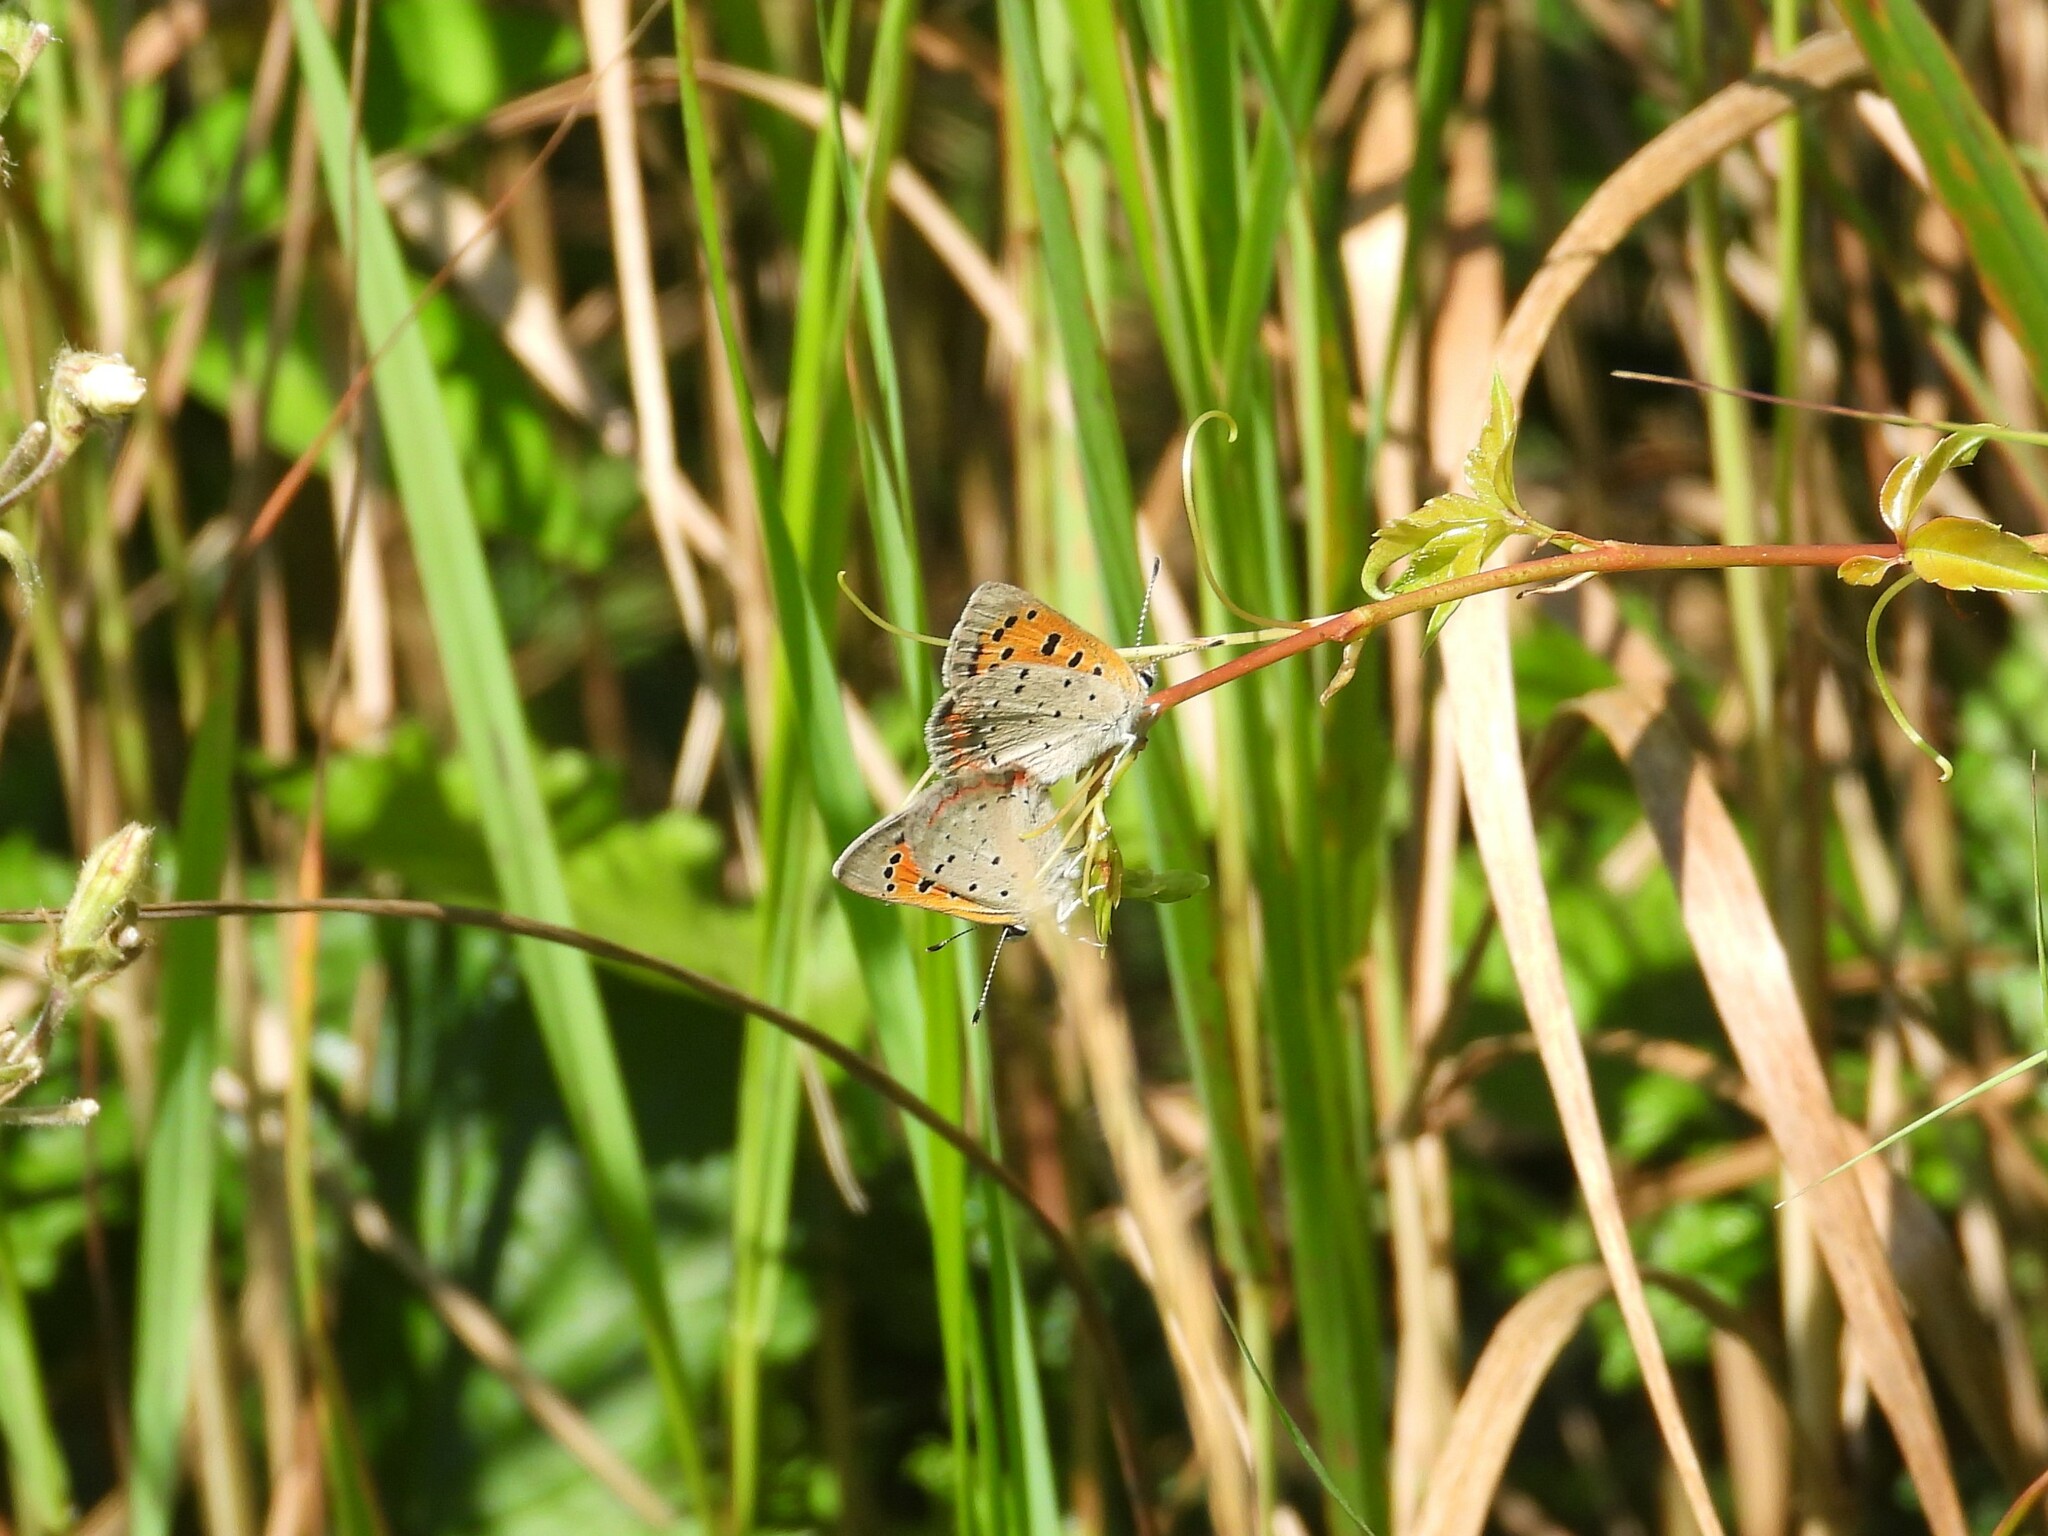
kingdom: Animalia
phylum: Arthropoda
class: Insecta
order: Lepidoptera
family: Lycaenidae
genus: Lycaena
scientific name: Lycaena hypophlaeas
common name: American copper
